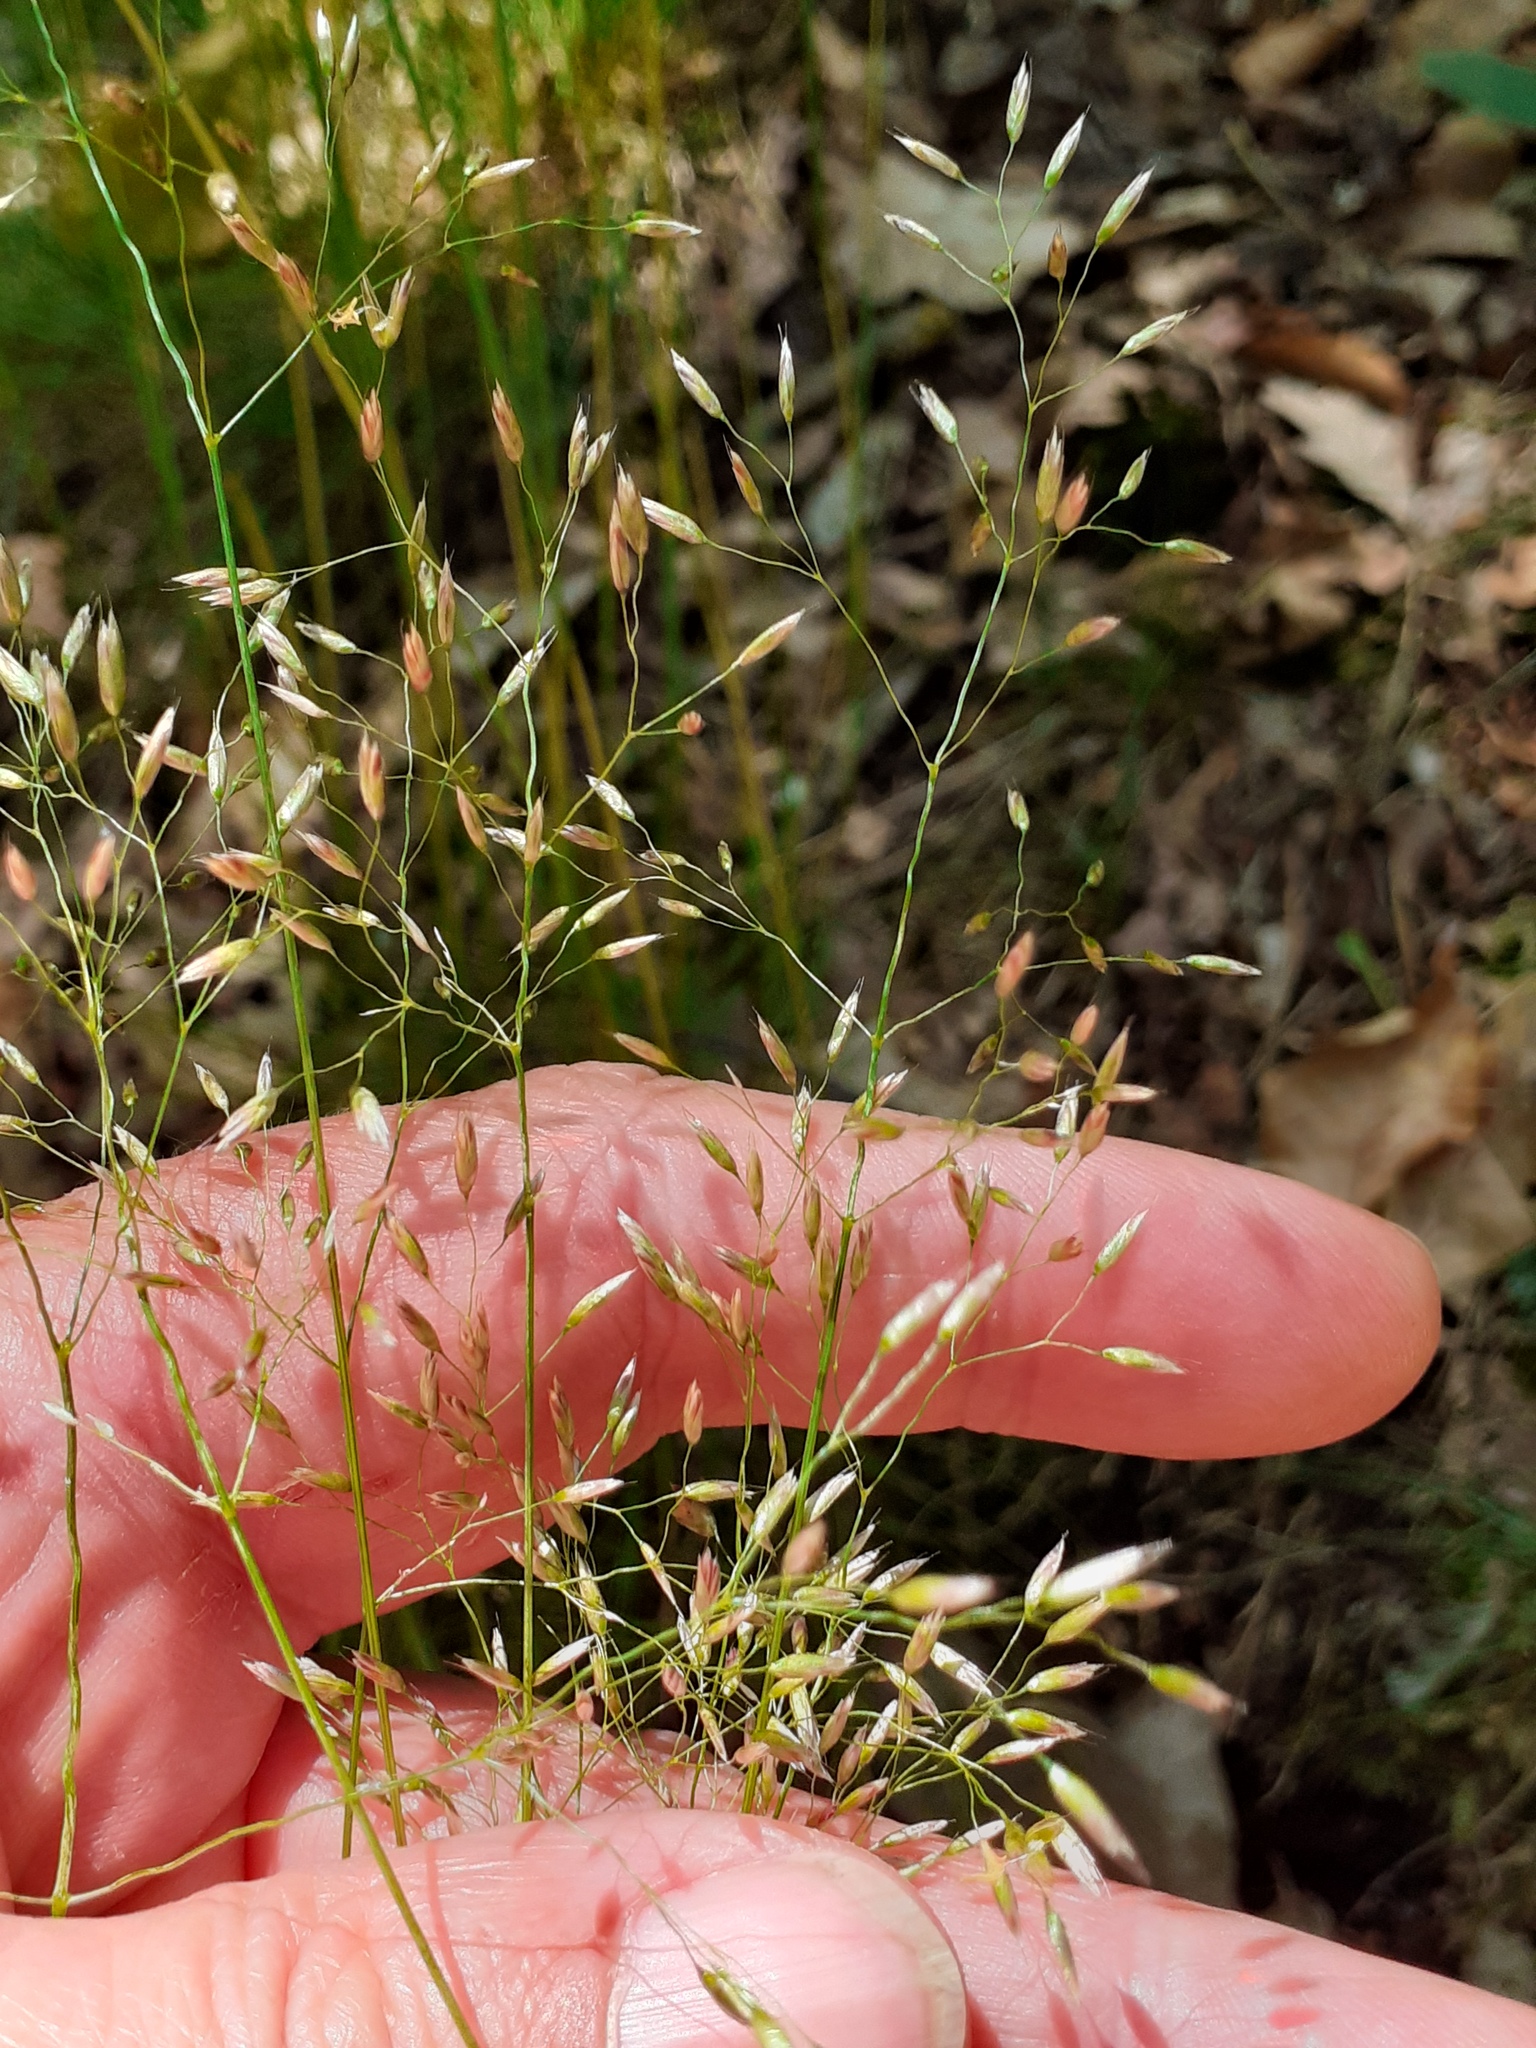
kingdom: Plantae
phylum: Tracheophyta
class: Liliopsida
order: Poales
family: Poaceae
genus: Avenella
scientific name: Avenella flexuosa
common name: Wavy hairgrass
